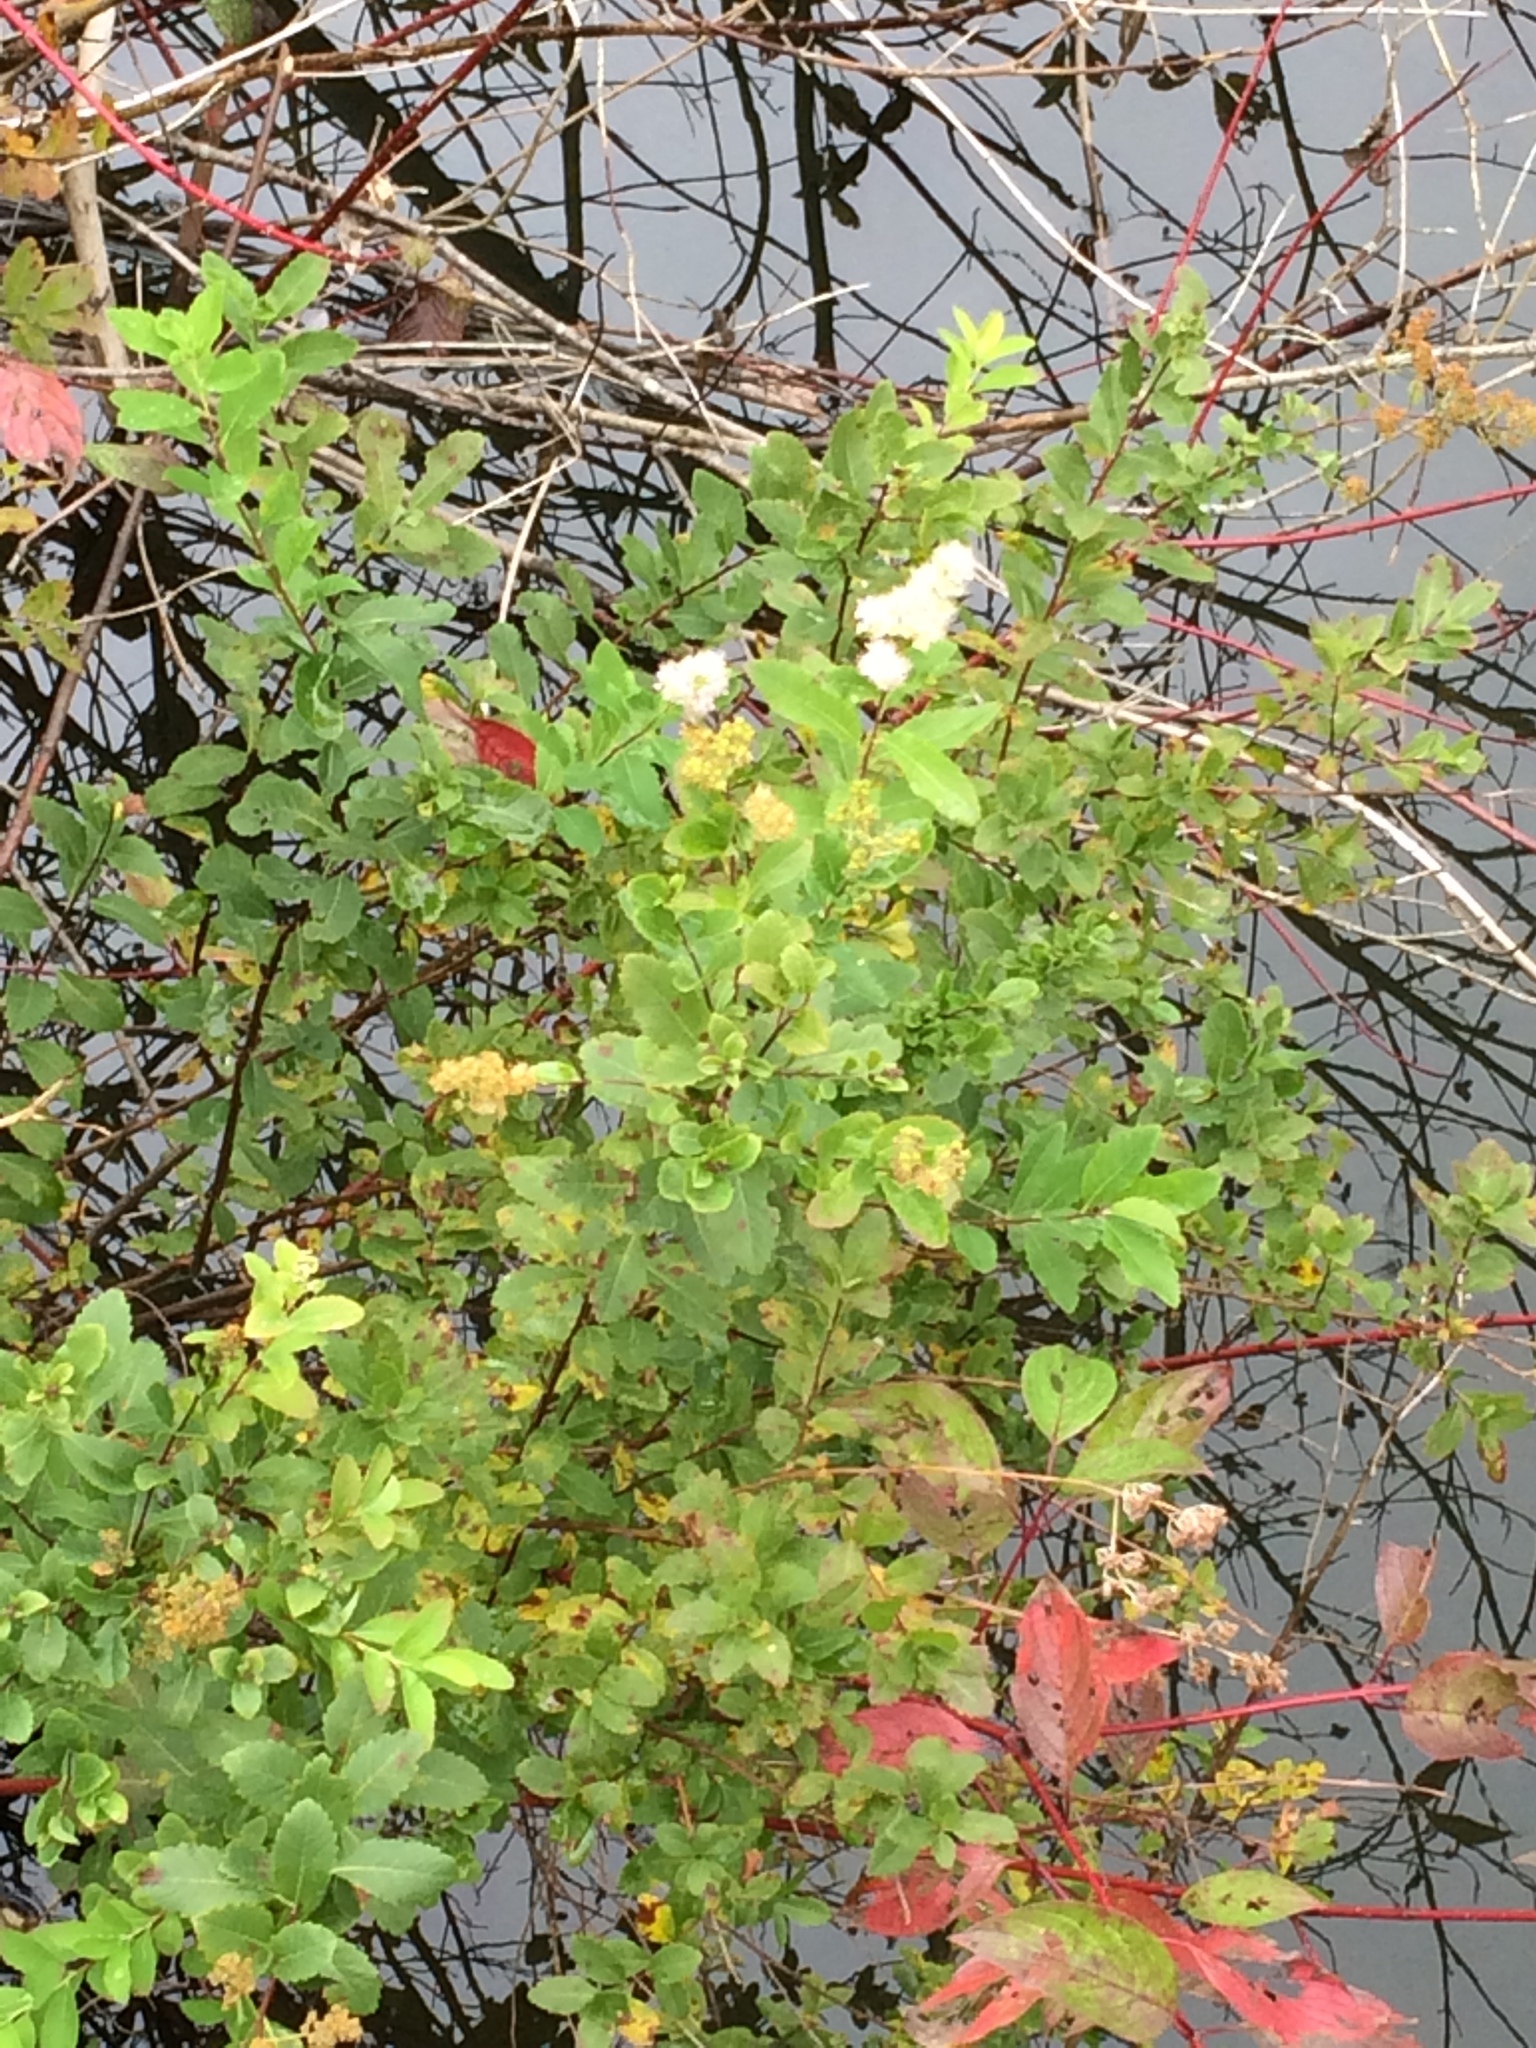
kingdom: Plantae
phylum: Tracheophyta
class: Magnoliopsida
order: Rosales
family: Rosaceae
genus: Spiraea
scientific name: Spiraea alba
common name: Pale bridewort
